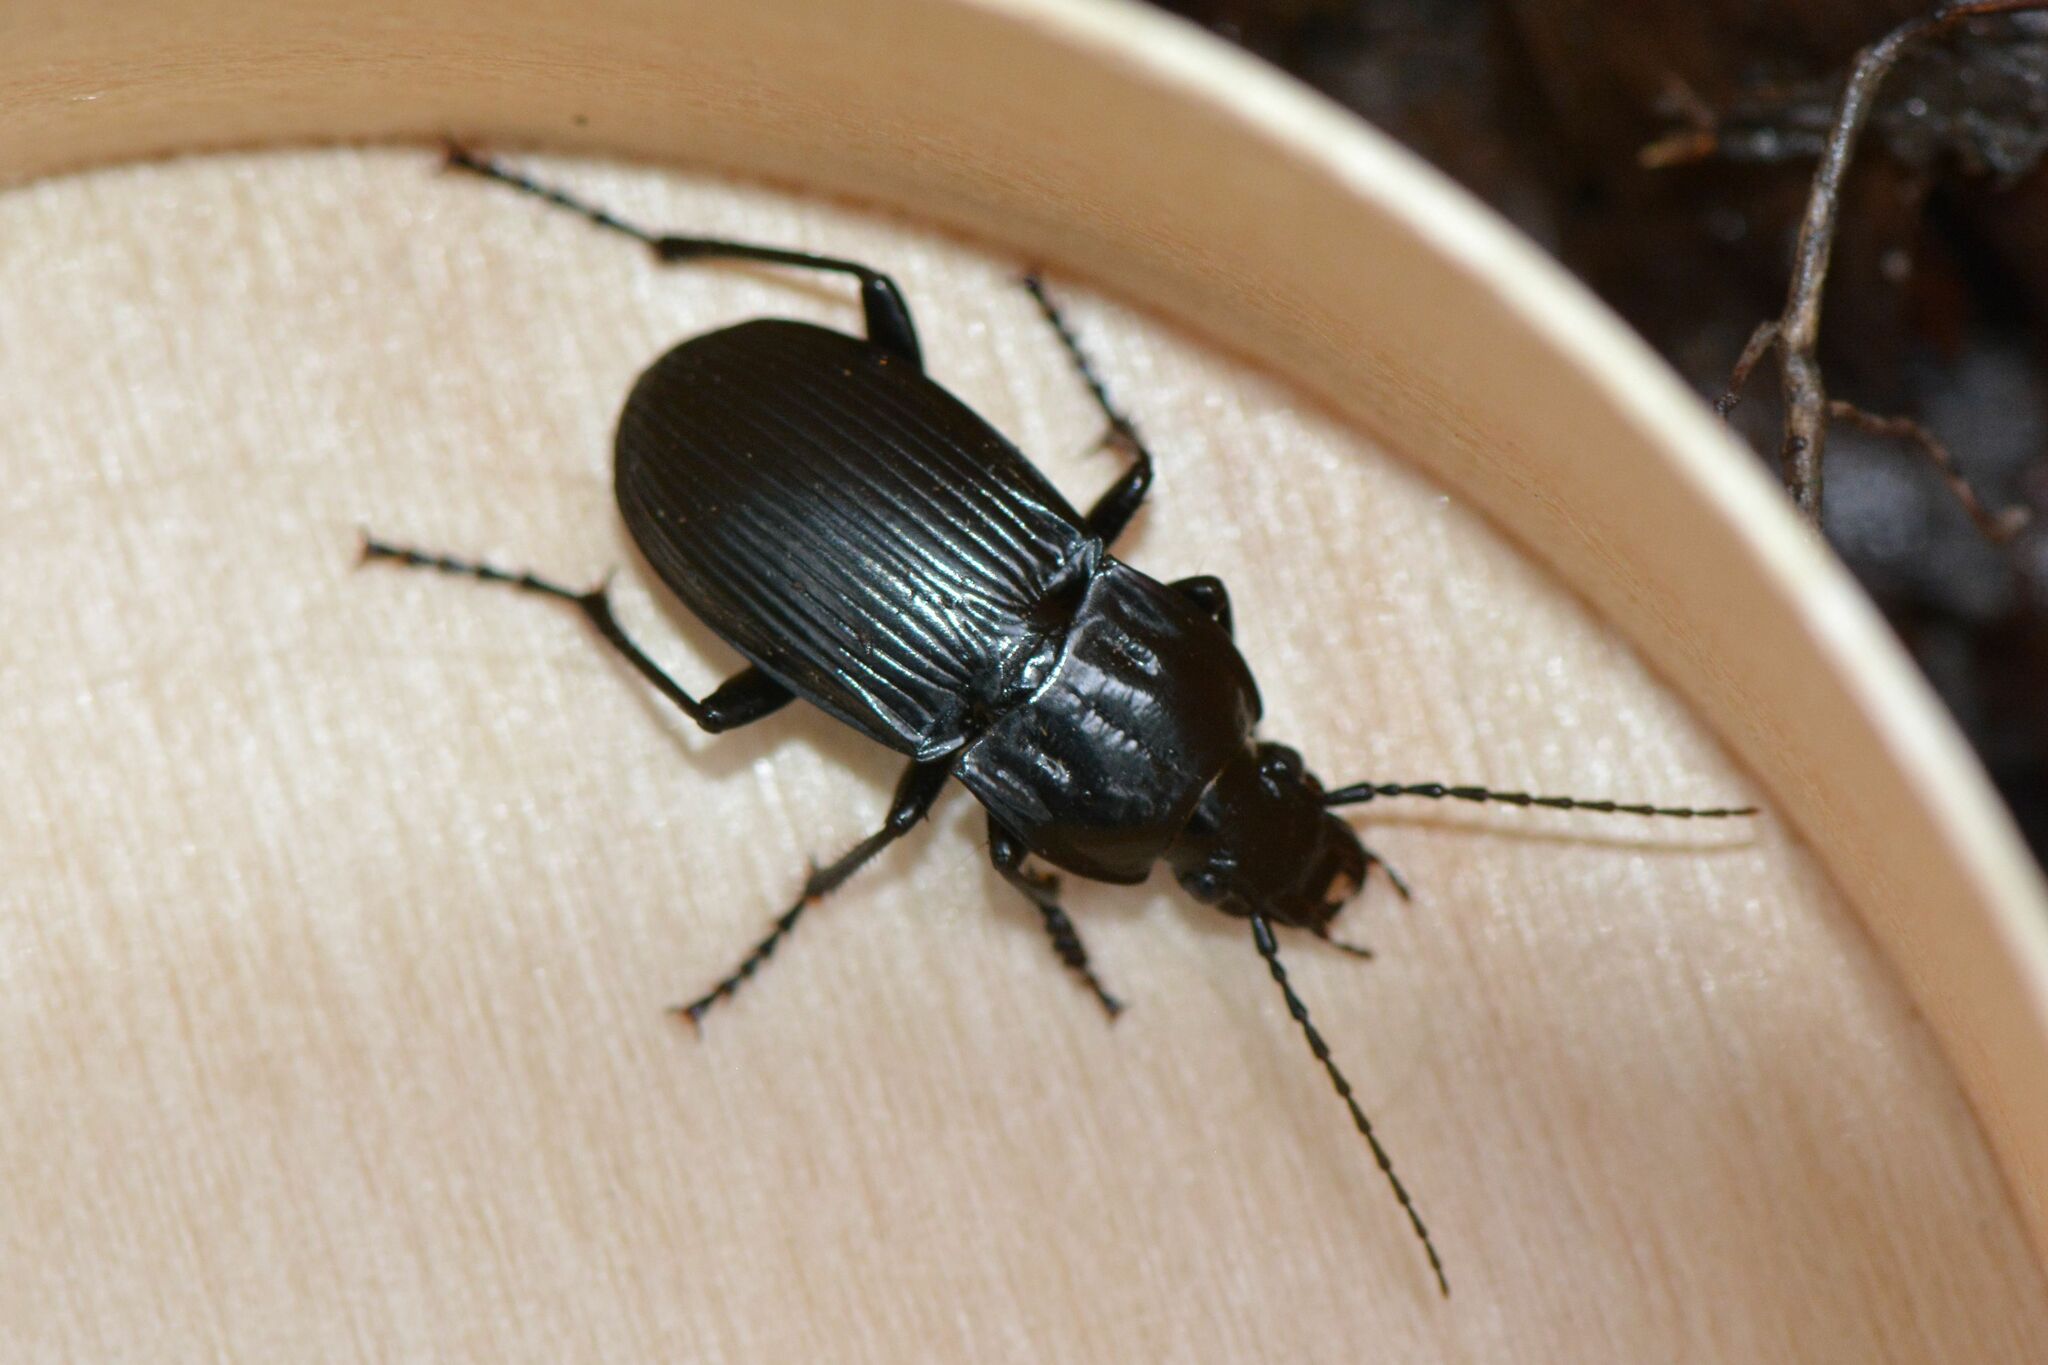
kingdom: Animalia
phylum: Arthropoda
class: Insecta
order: Coleoptera
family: Carabidae
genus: Abax
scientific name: Abax parallelepipedus
